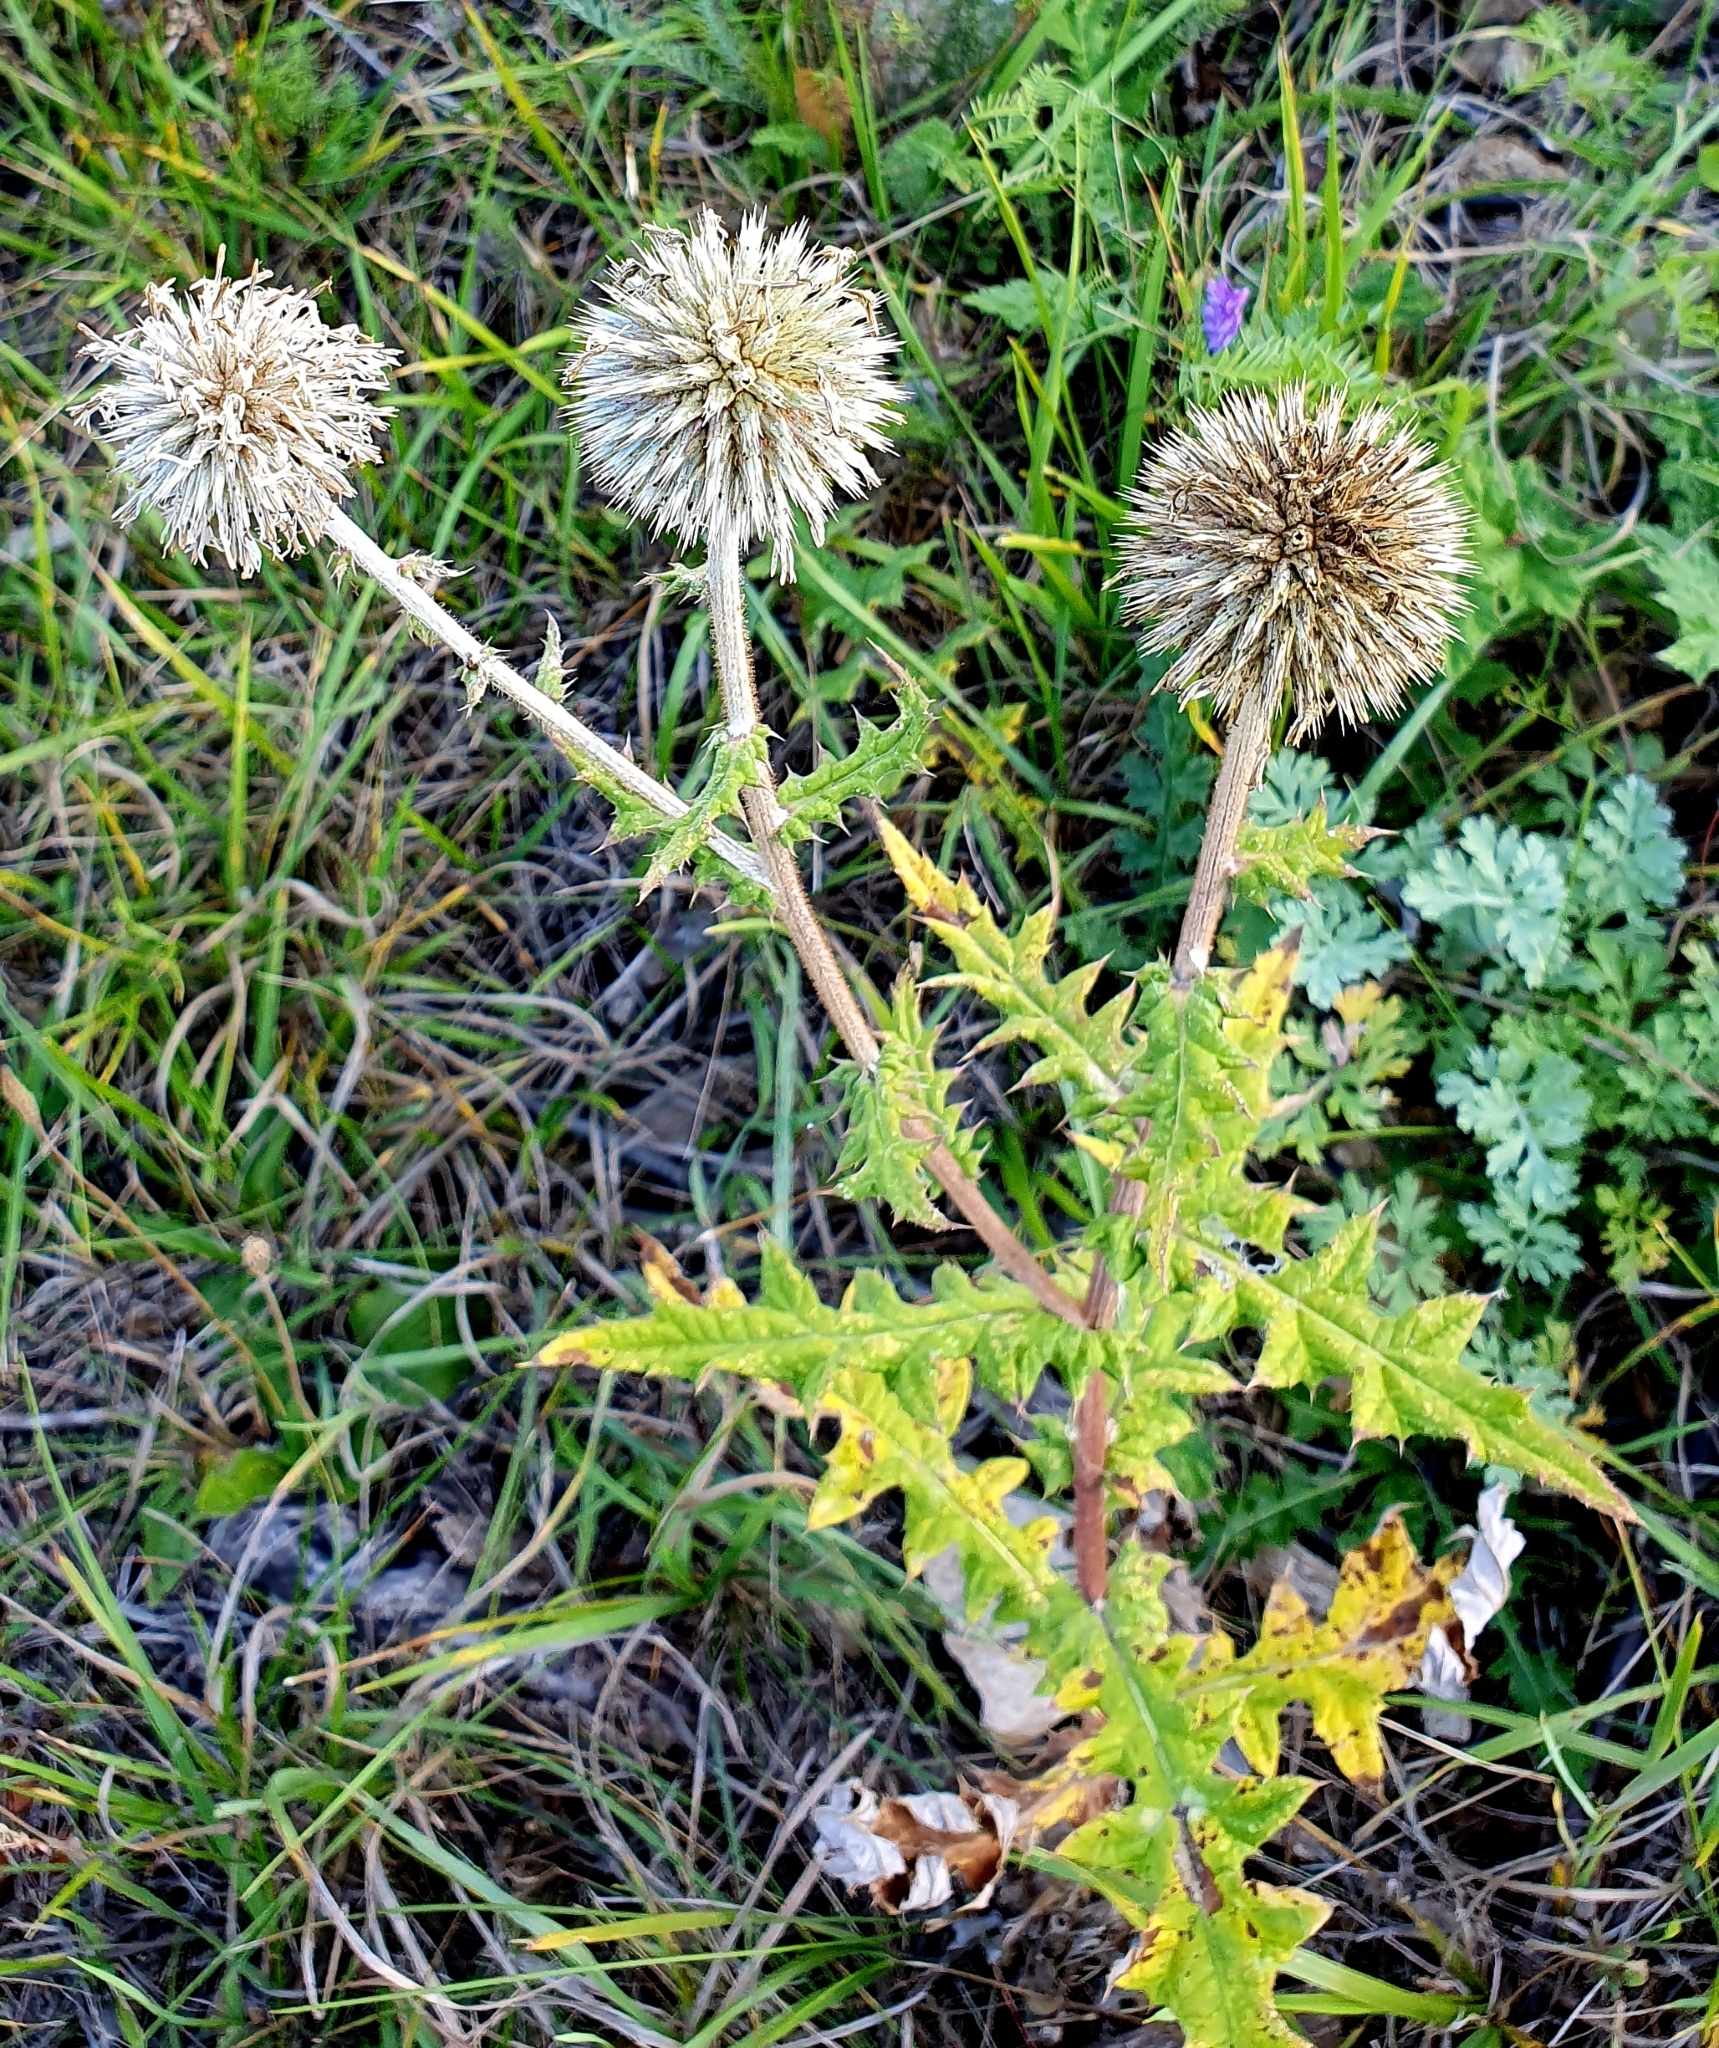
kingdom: Plantae
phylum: Tracheophyta
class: Magnoliopsida
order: Asterales
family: Asteraceae
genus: Echinops
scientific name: Echinops sphaerocephalus
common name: Glandular globe-thistle
